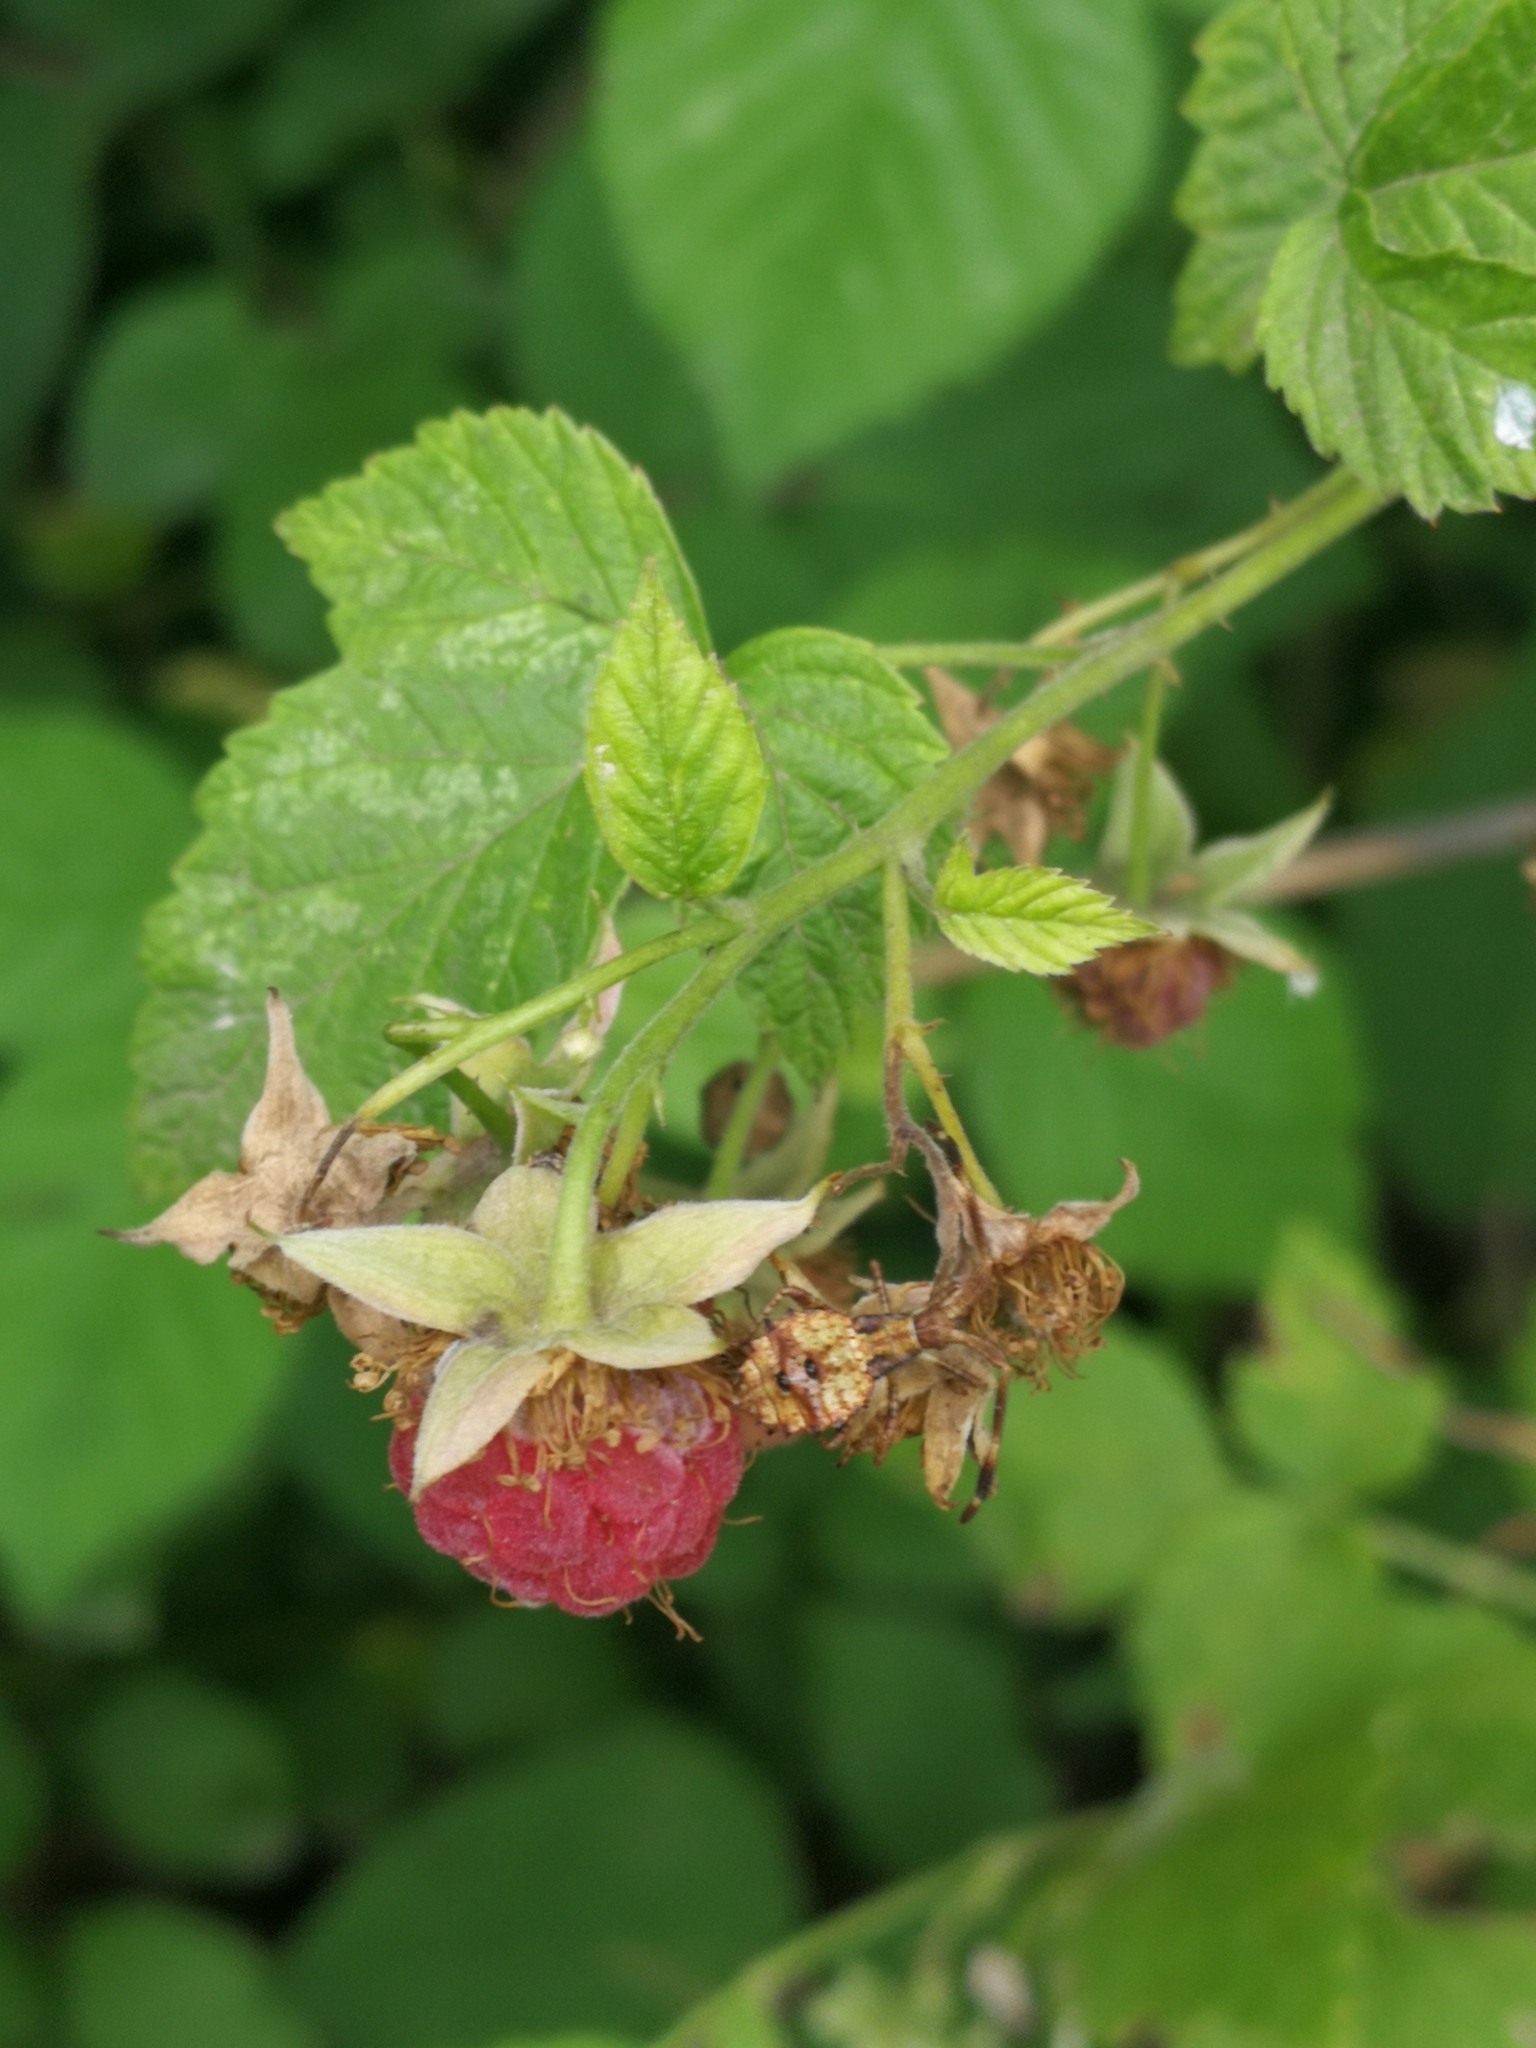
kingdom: Plantae
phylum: Tracheophyta
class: Magnoliopsida
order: Rosales
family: Rosaceae
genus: Rubus
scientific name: Rubus idaeus
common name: Raspberry
